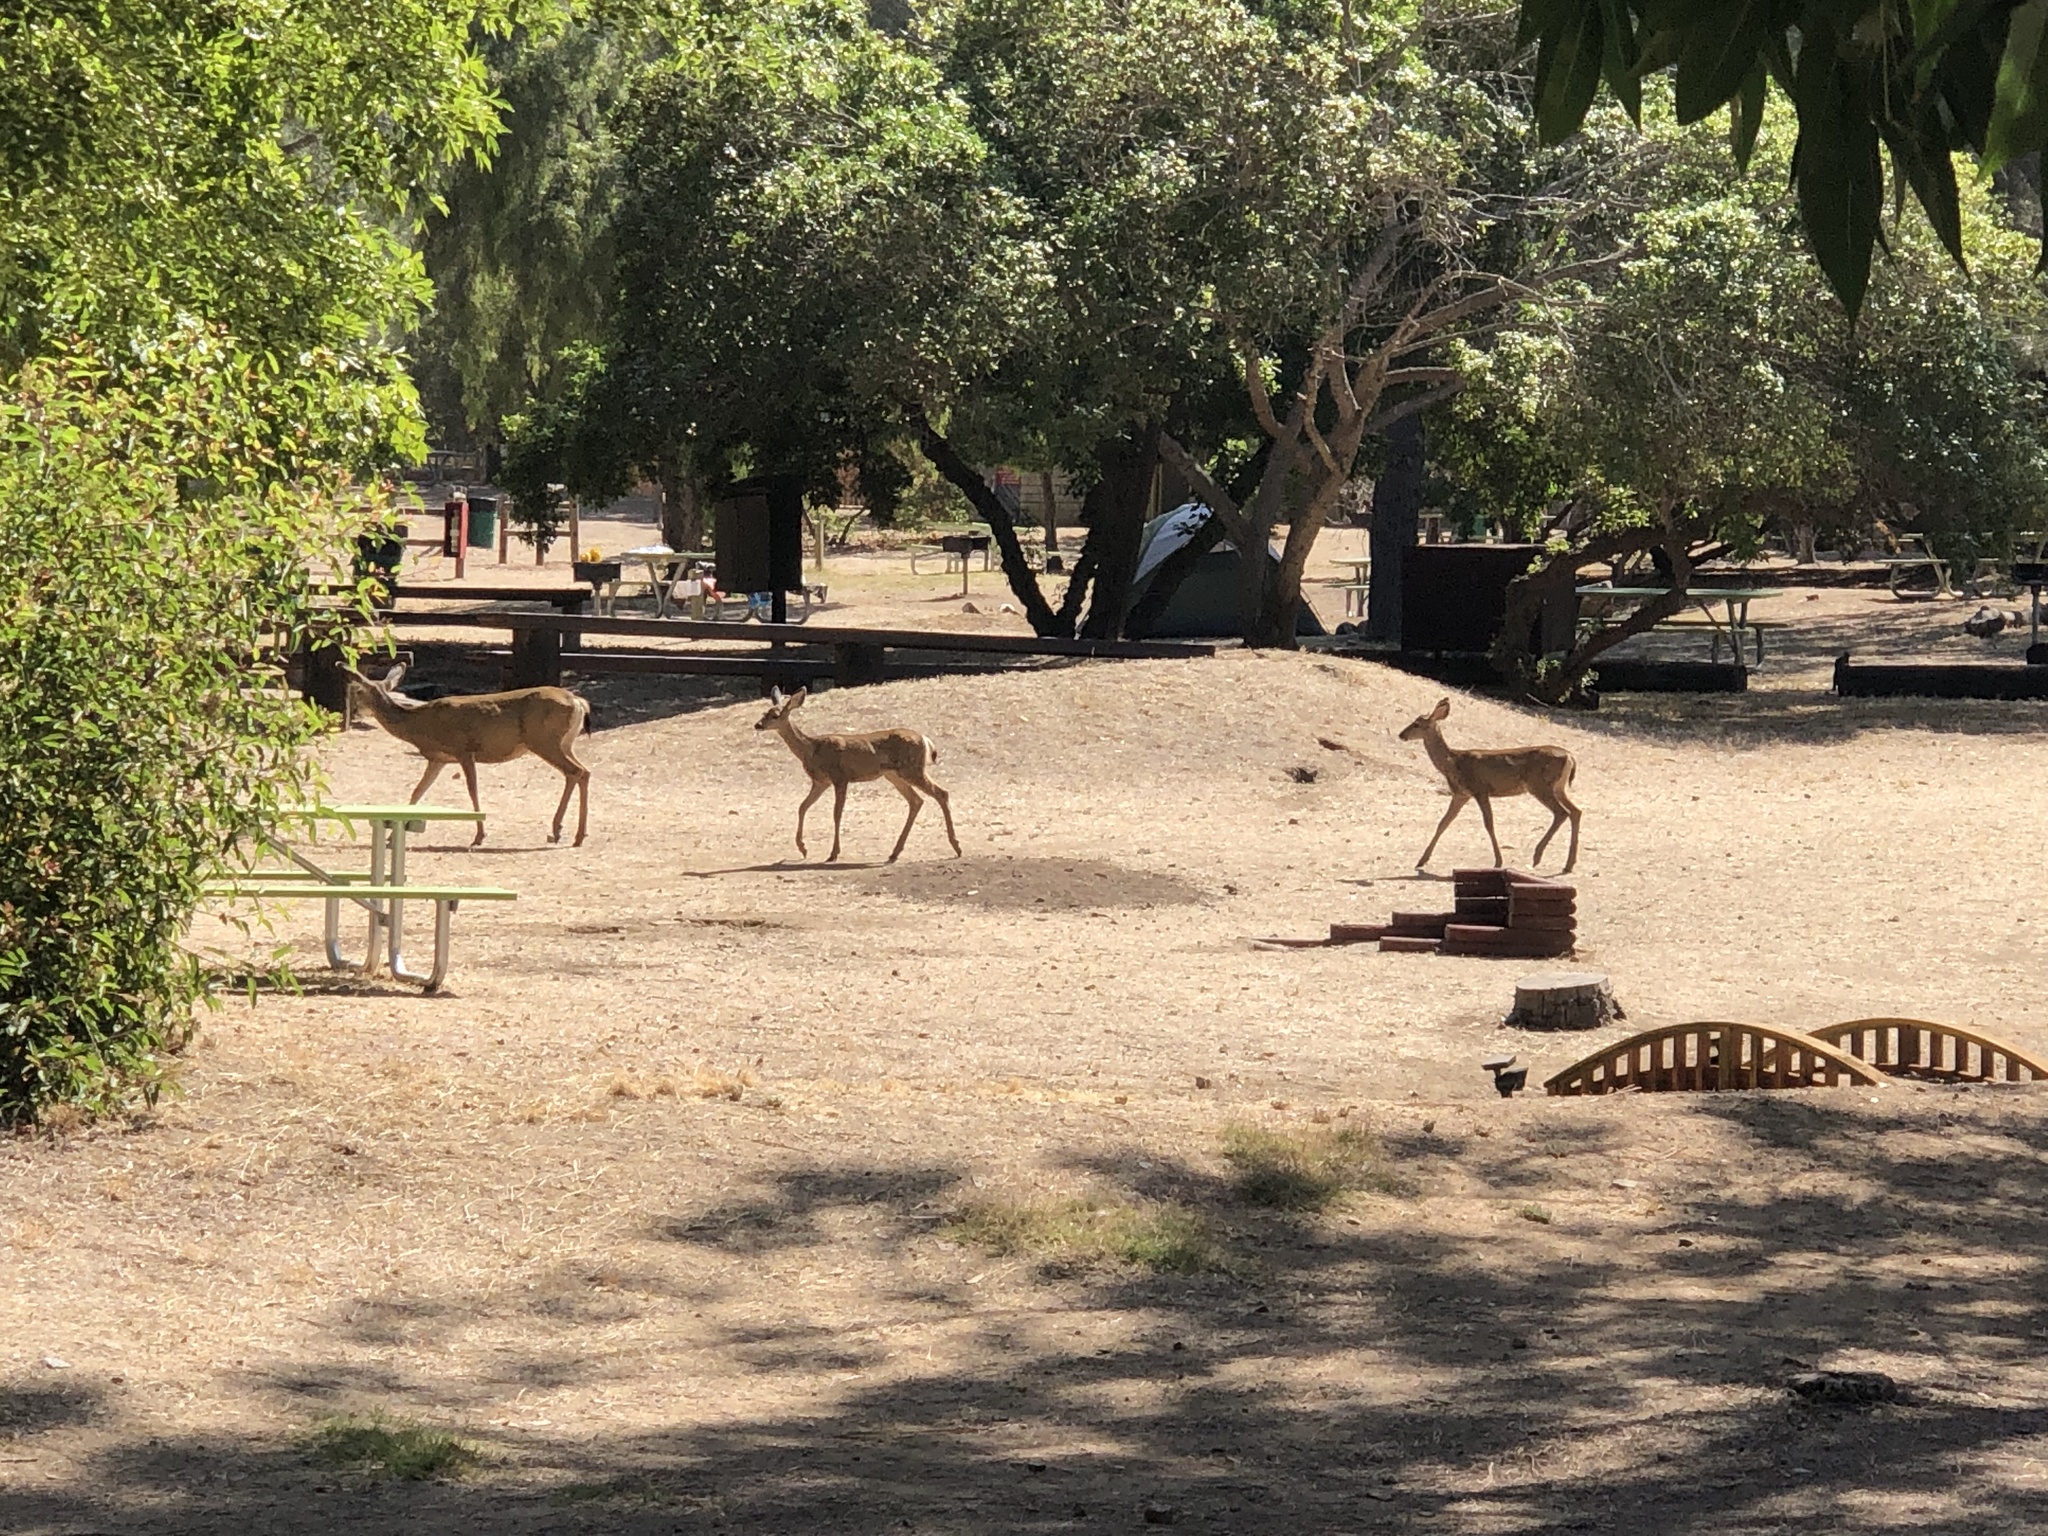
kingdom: Animalia
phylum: Chordata
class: Mammalia
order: Artiodactyla
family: Cervidae
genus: Odocoileus
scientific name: Odocoileus hemionus
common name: Mule deer
